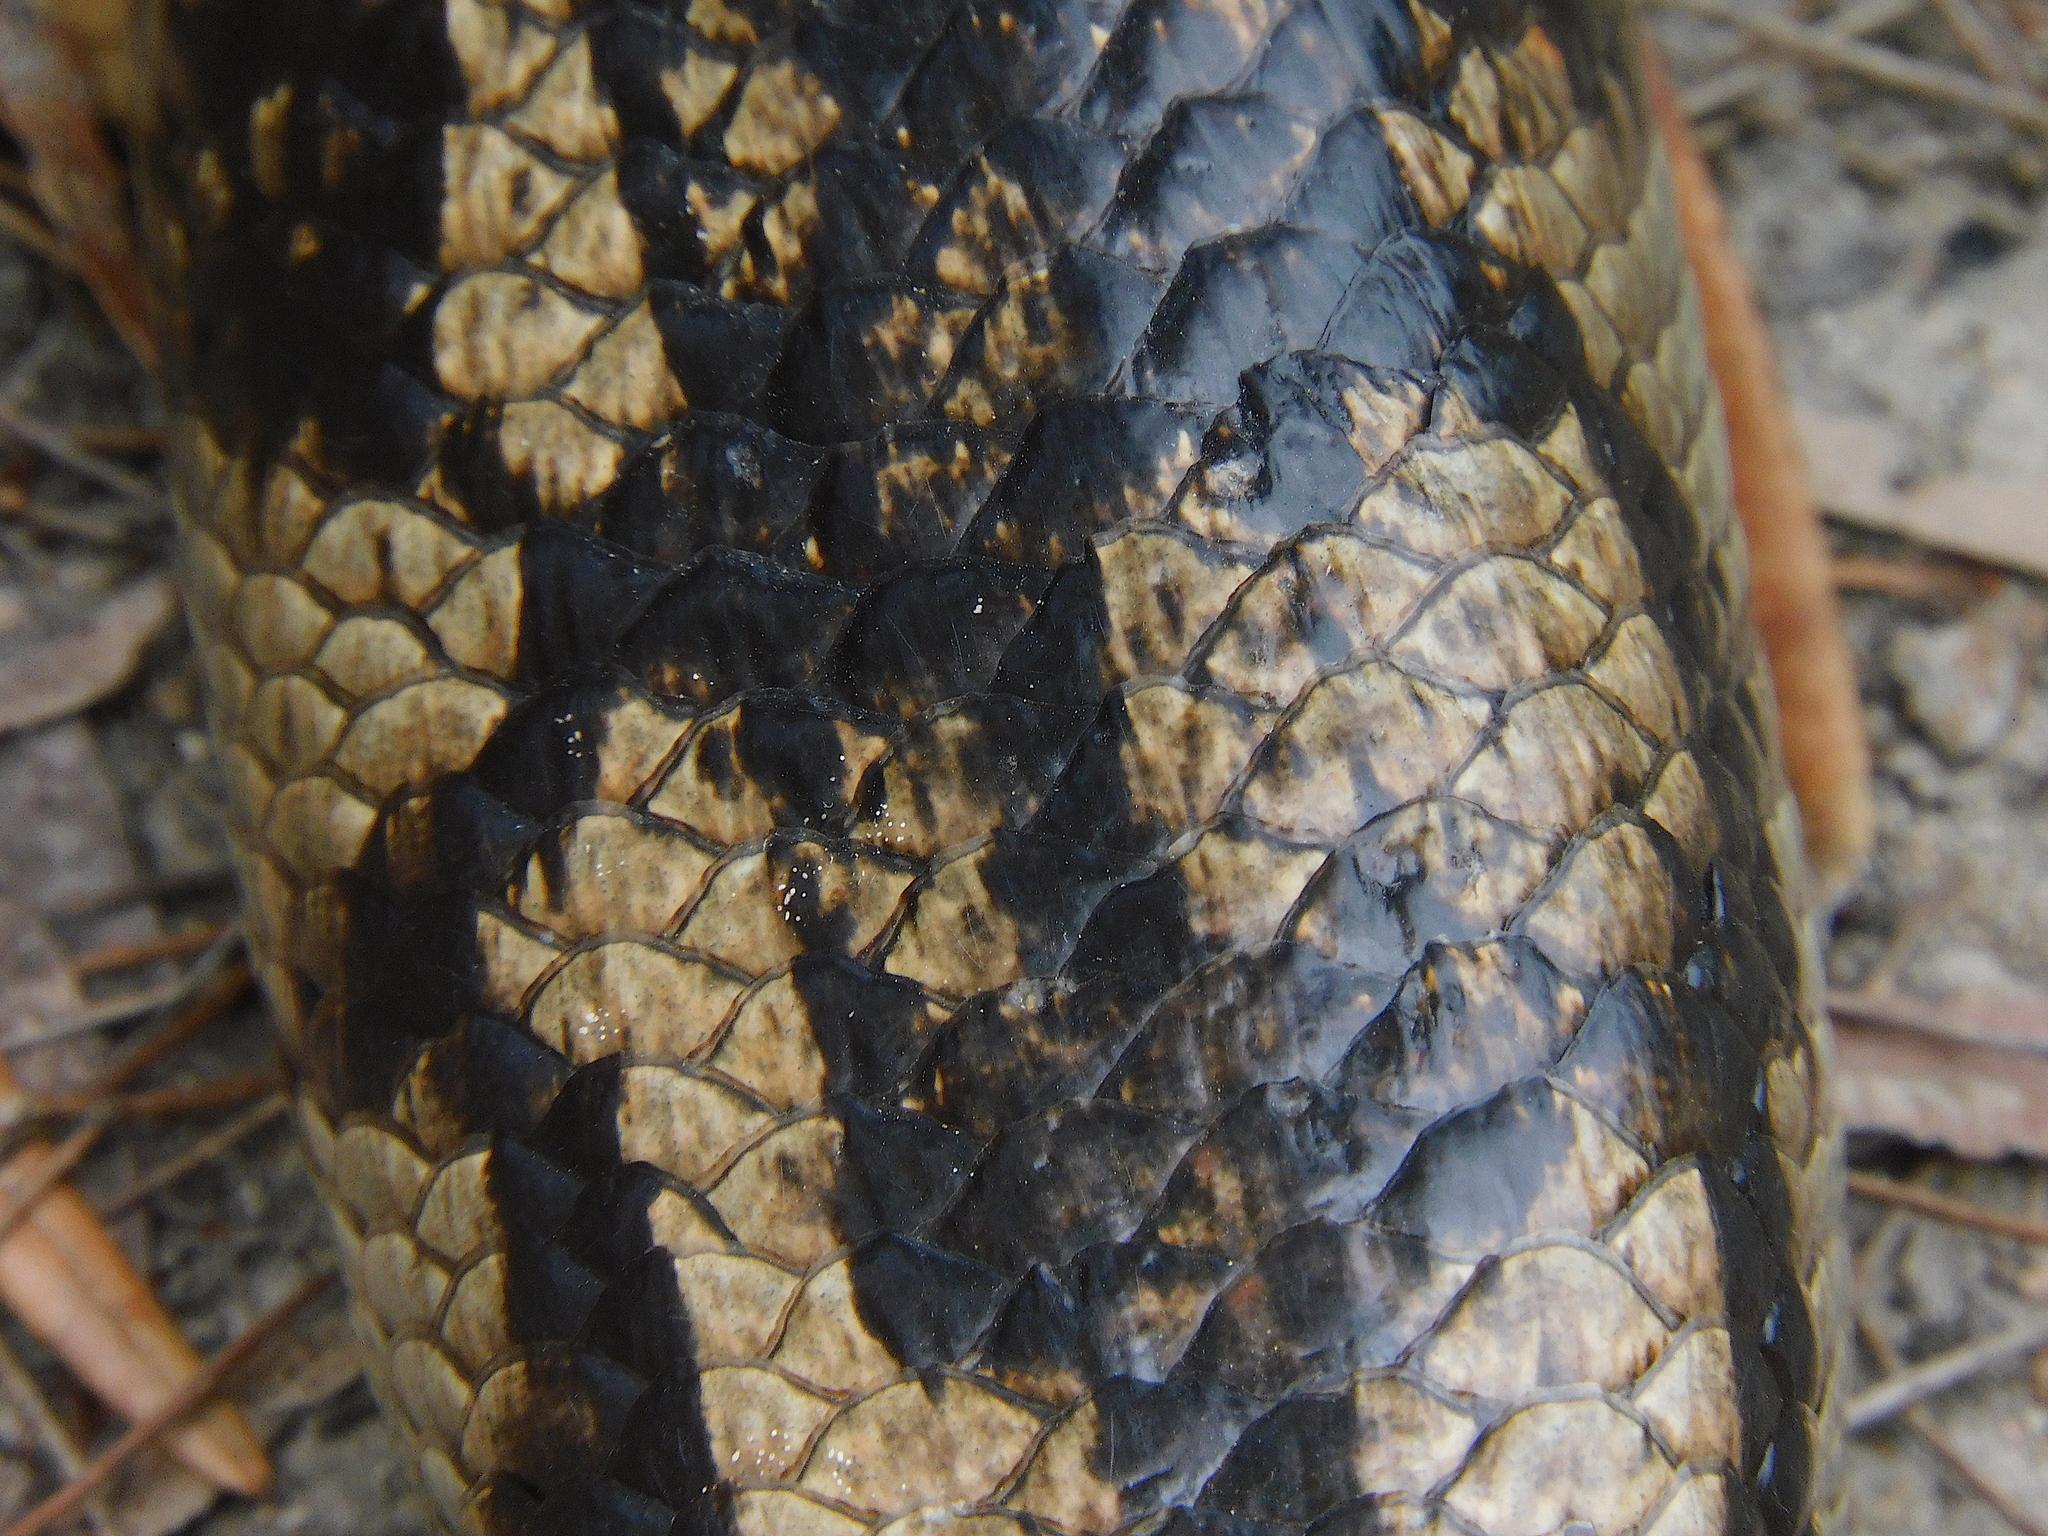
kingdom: Animalia
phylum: Chordata
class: Squamata
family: Scincidae
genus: Tiliqua
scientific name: Tiliqua nigrolutea
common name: Blotched blue-tongued lizard
